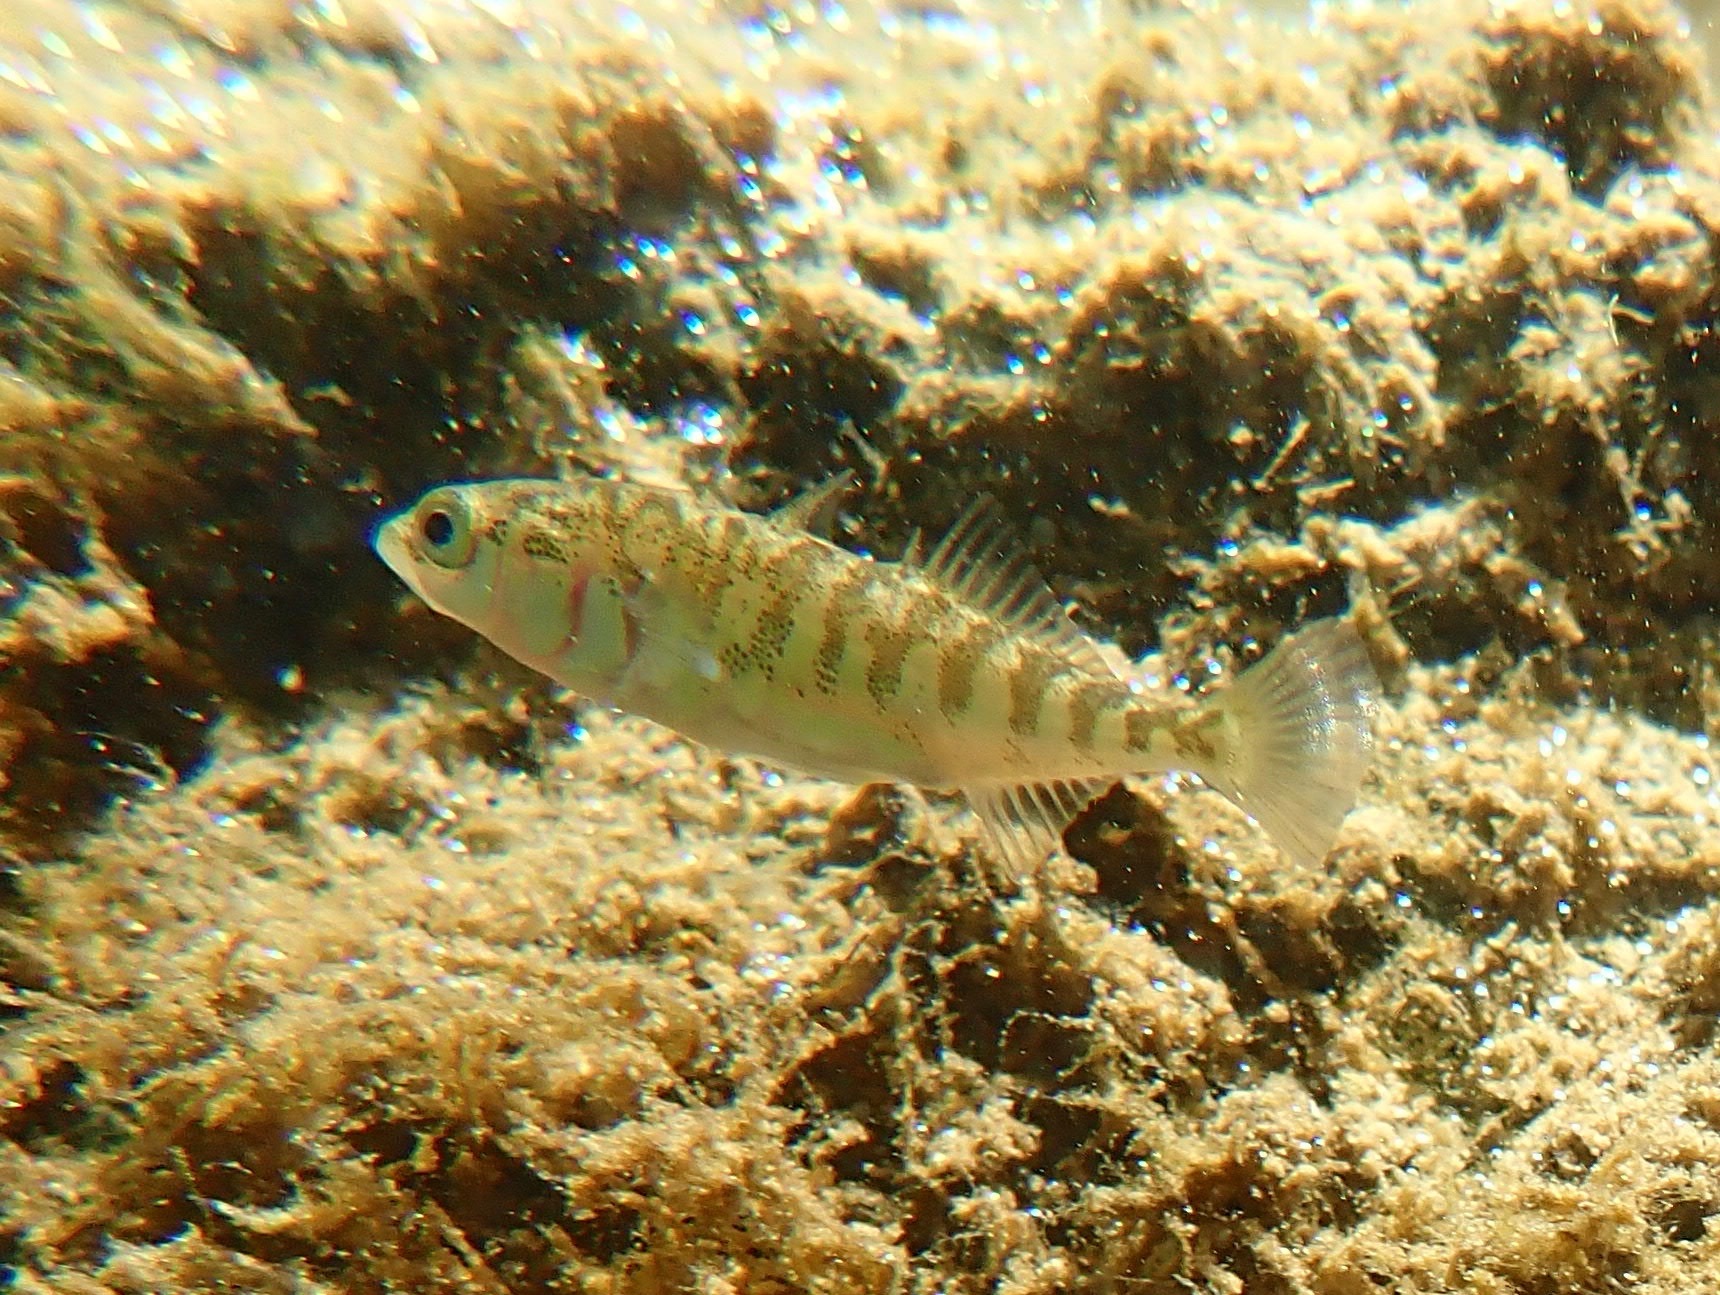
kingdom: Animalia
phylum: Chordata
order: Gasterosteiformes
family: Gasterosteidae
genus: Gasterosteus
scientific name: Gasterosteus aculeatus
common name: Three-spined stickleback
